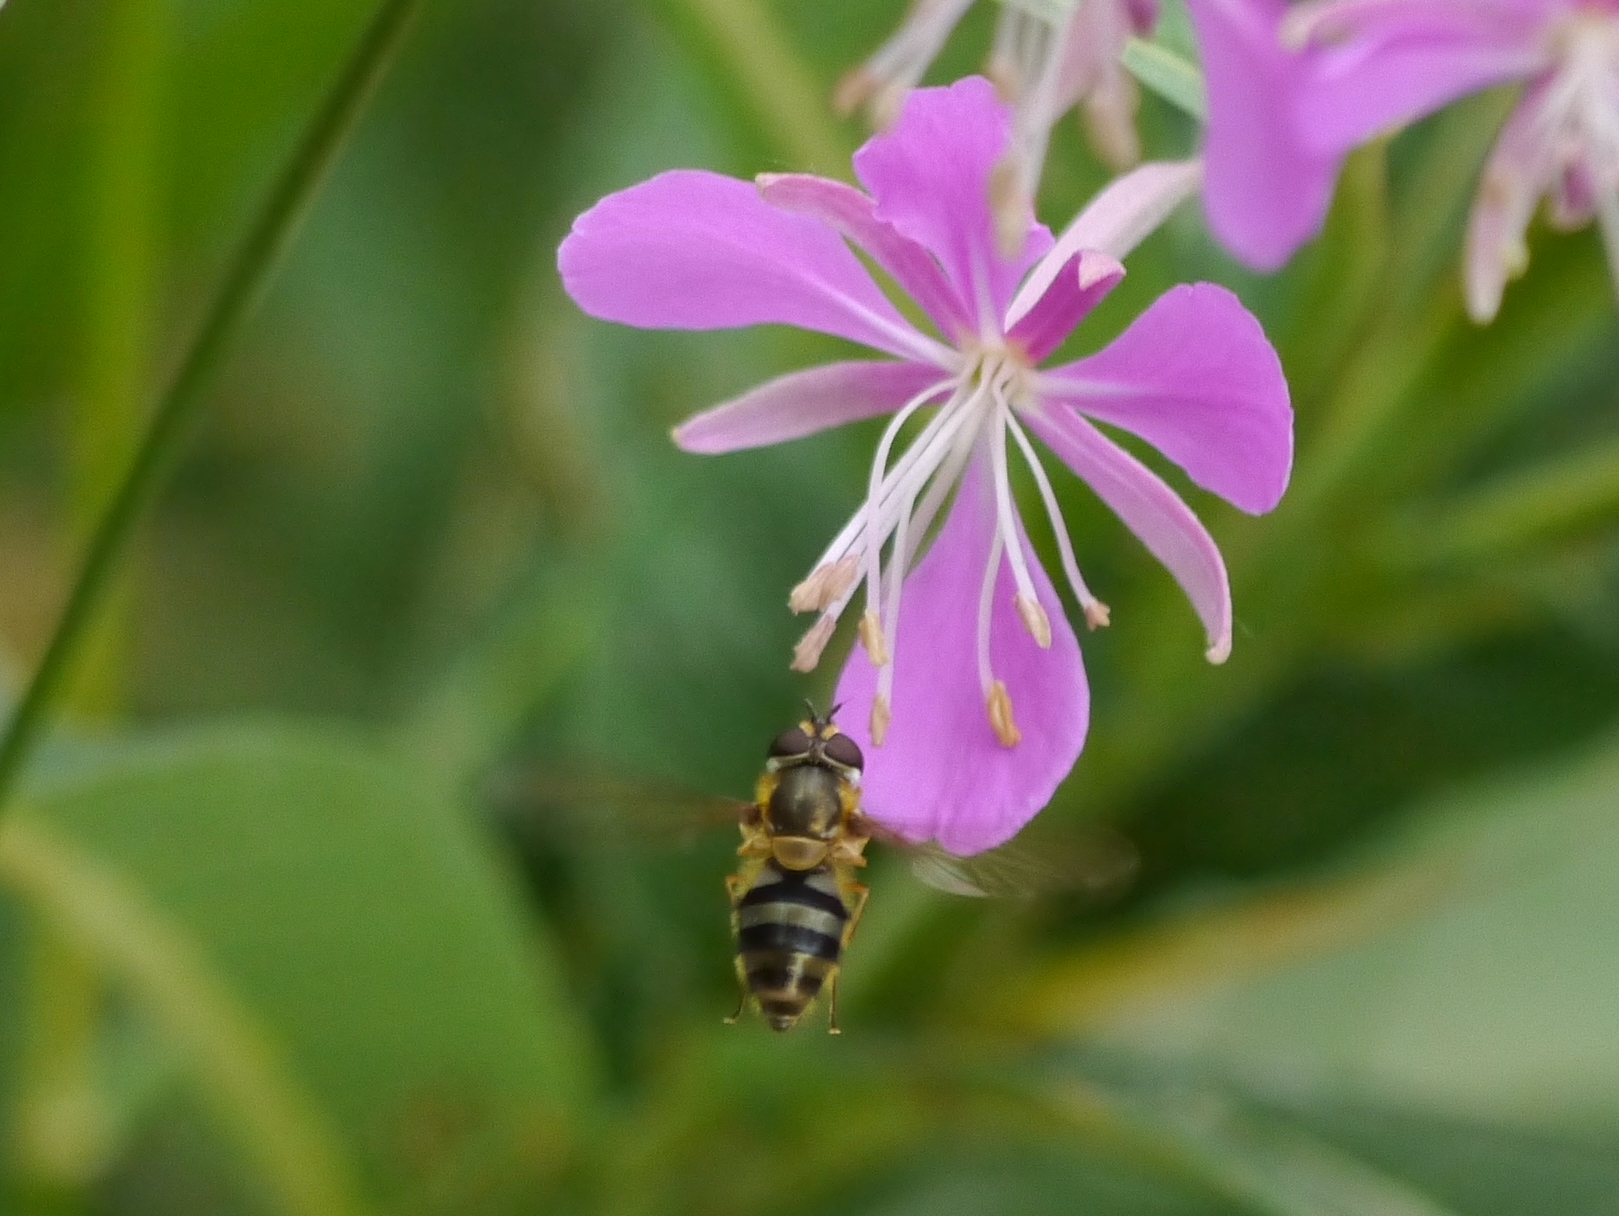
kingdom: Animalia
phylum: Arthropoda
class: Insecta
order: Diptera
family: Syrphidae
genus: Epistrophe
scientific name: Epistrophe grossulariae
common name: Black-horned smoothtail
